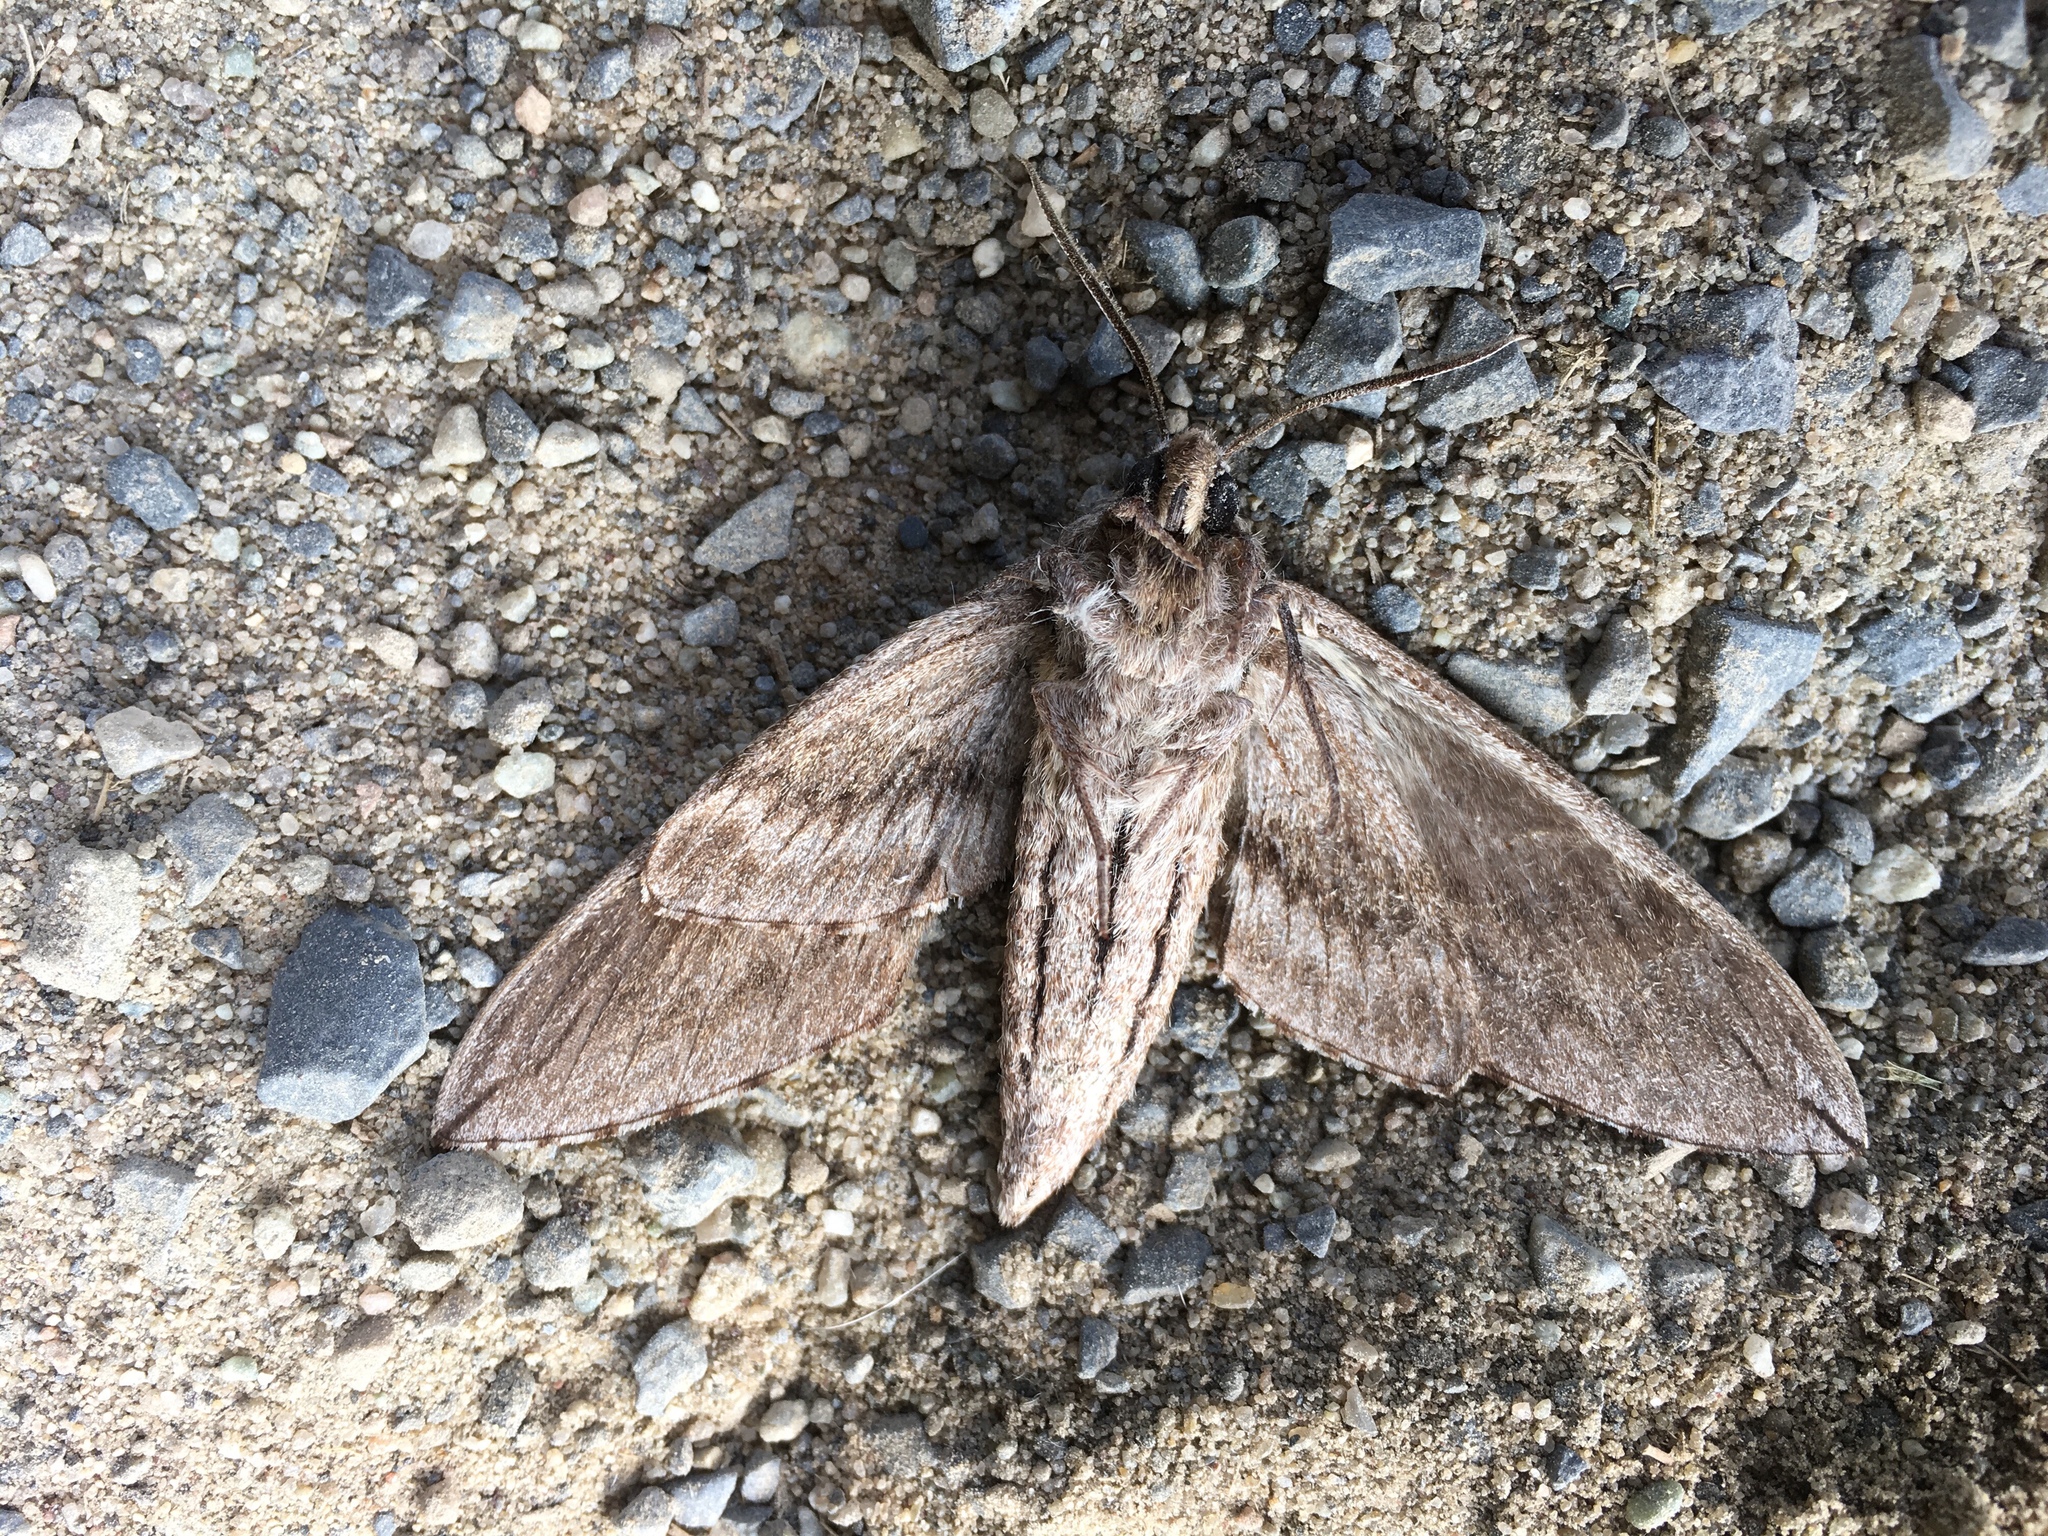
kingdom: Animalia
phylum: Arthropoda
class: Insecta
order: Lepidoptera
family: Sphingidae
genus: Sphinx
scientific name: Sphinx canadensis
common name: Canadian sphinx
